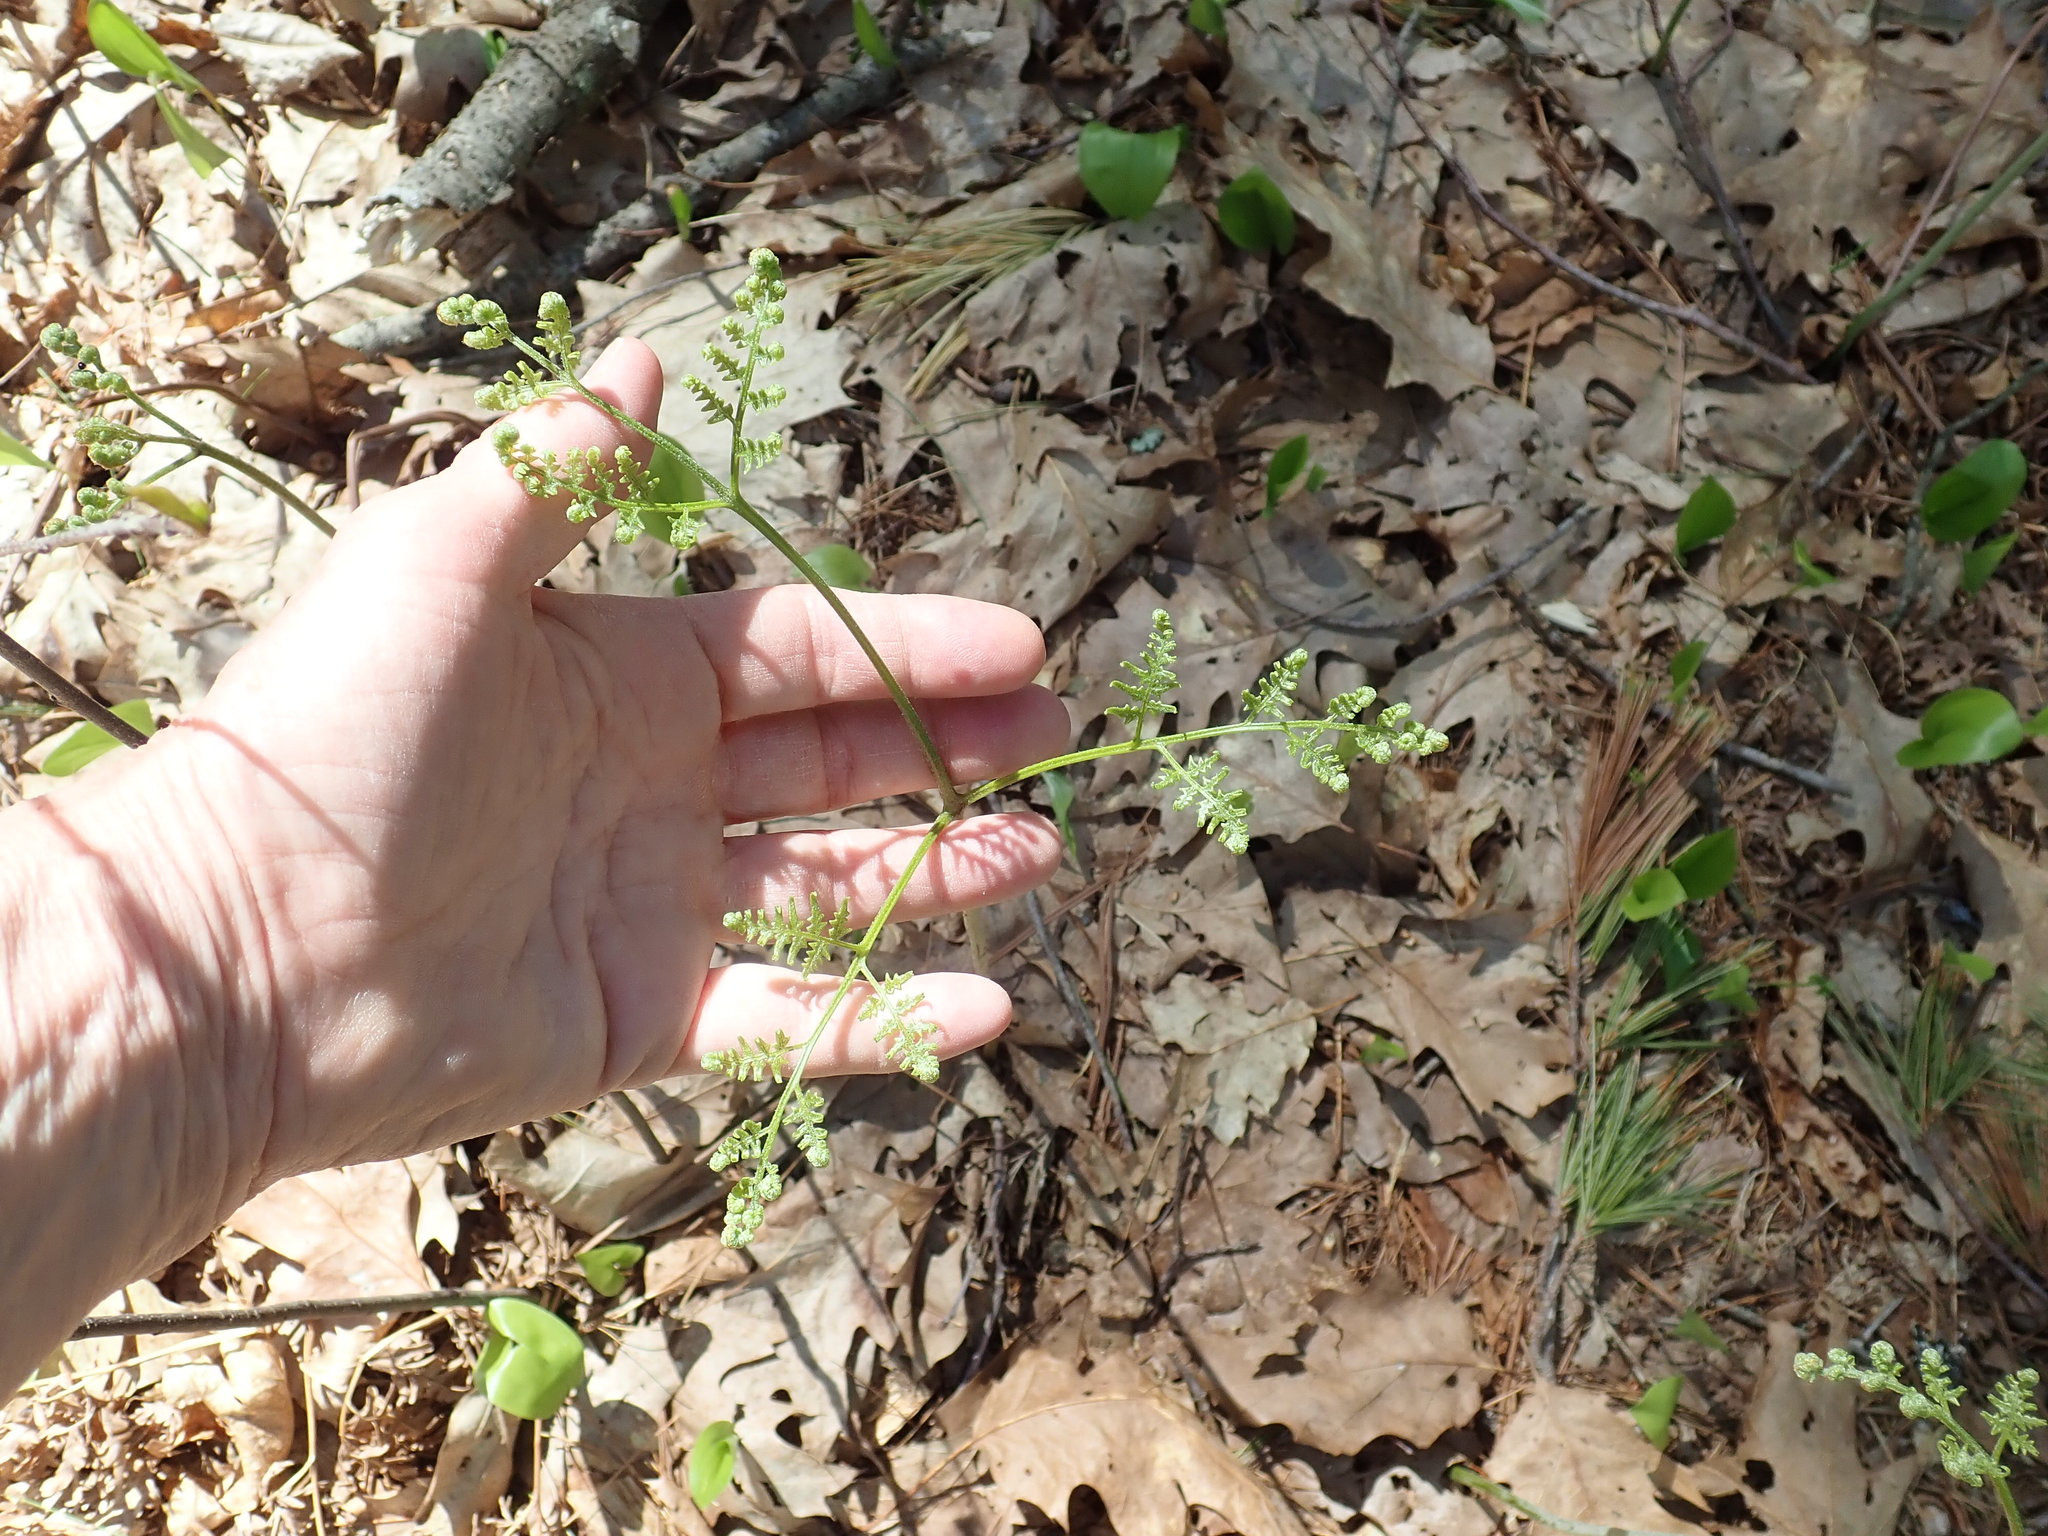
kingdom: Plantae
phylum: Tracheophyta
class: Polypodiopsida
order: Polypodiales
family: Dennstaedtiaceae
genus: Pteridium
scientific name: Pteridium aquilinum
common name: Bracken
